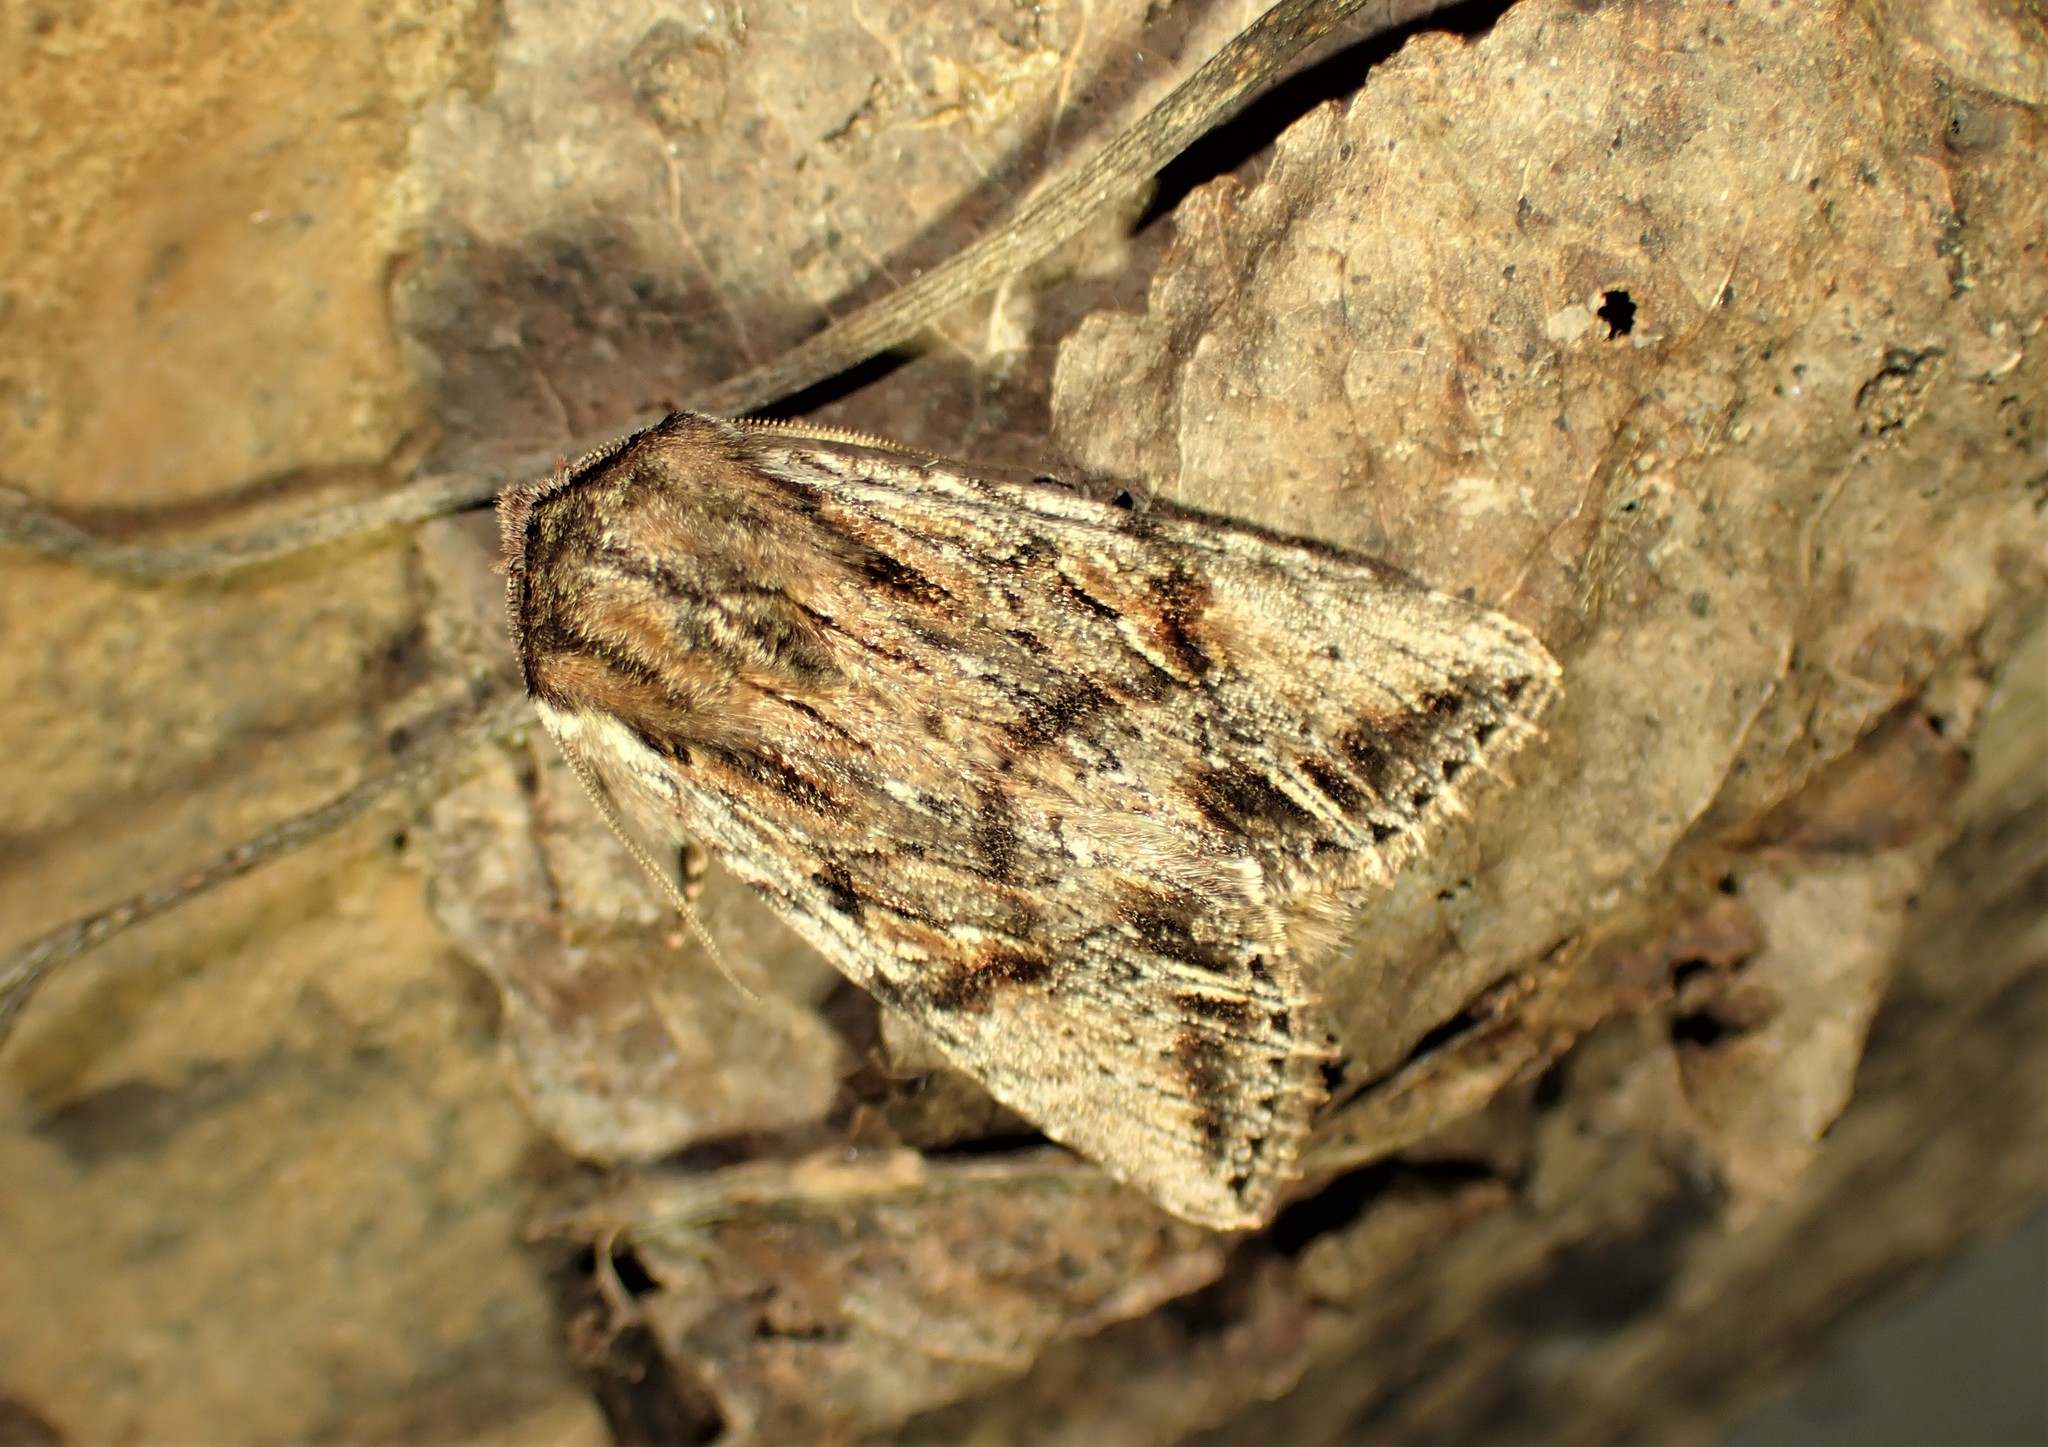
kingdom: Animalia
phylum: Arthropoda
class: Insecta
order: Lepidoptera
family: Noctuidae
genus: Achatia
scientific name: Achatia evicta
